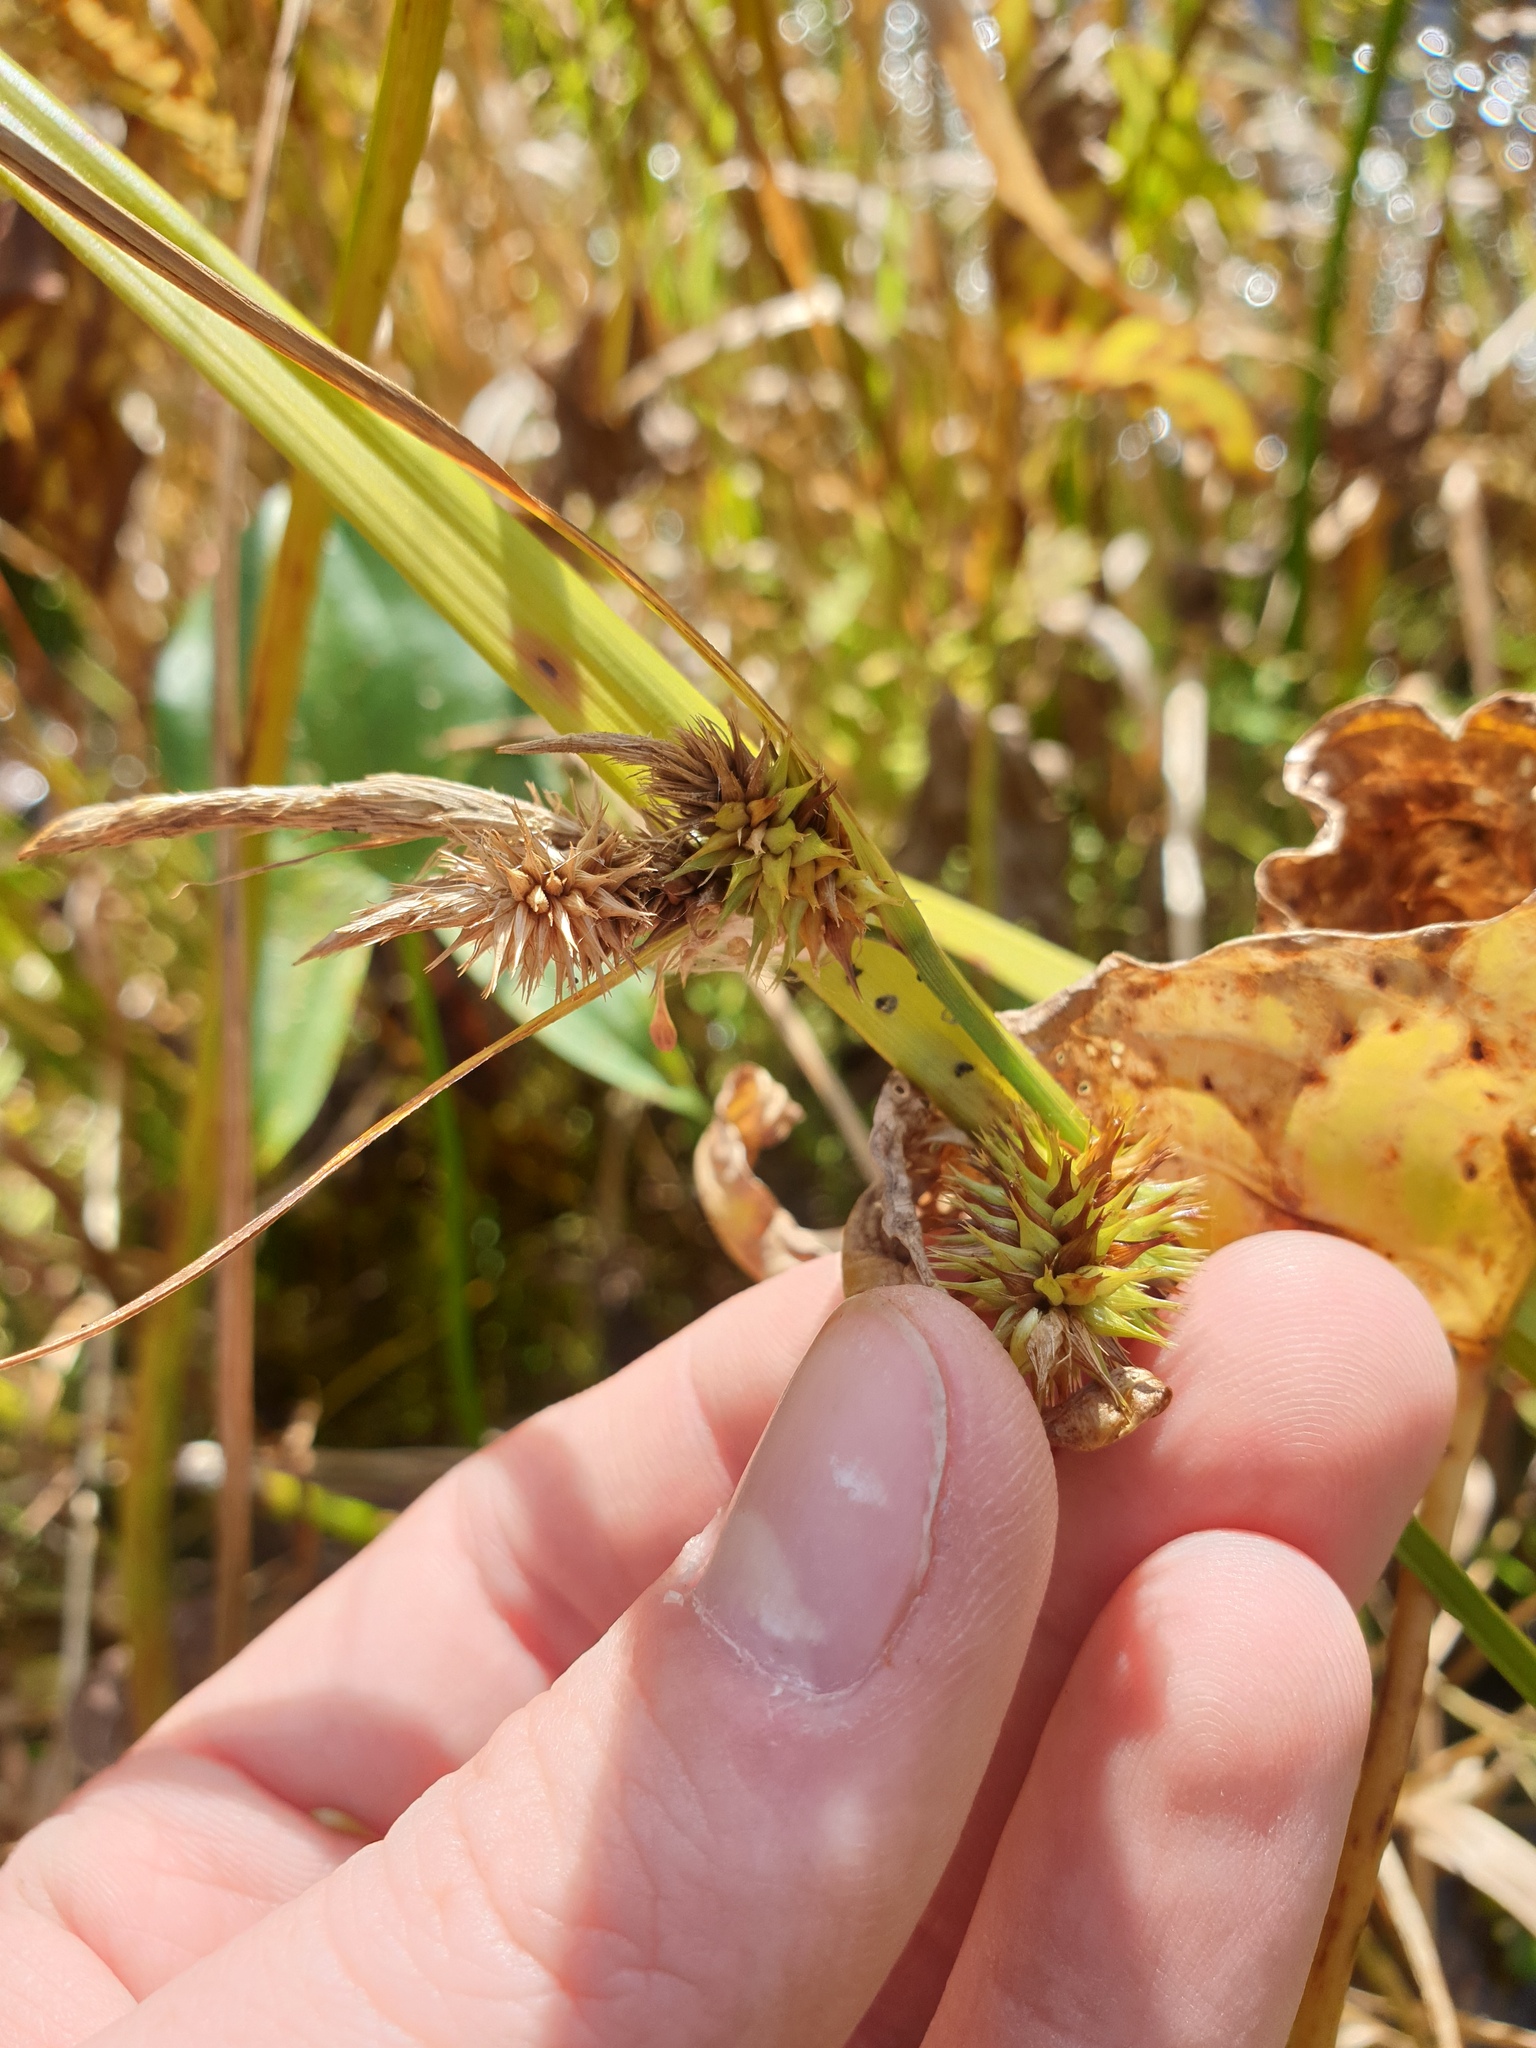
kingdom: Plantae
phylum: Tracheophyta
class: Liliopsida
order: Poales
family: Cyperaceae
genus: Carex
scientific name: Carex pseudocyperus
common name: Cyperus sedge
